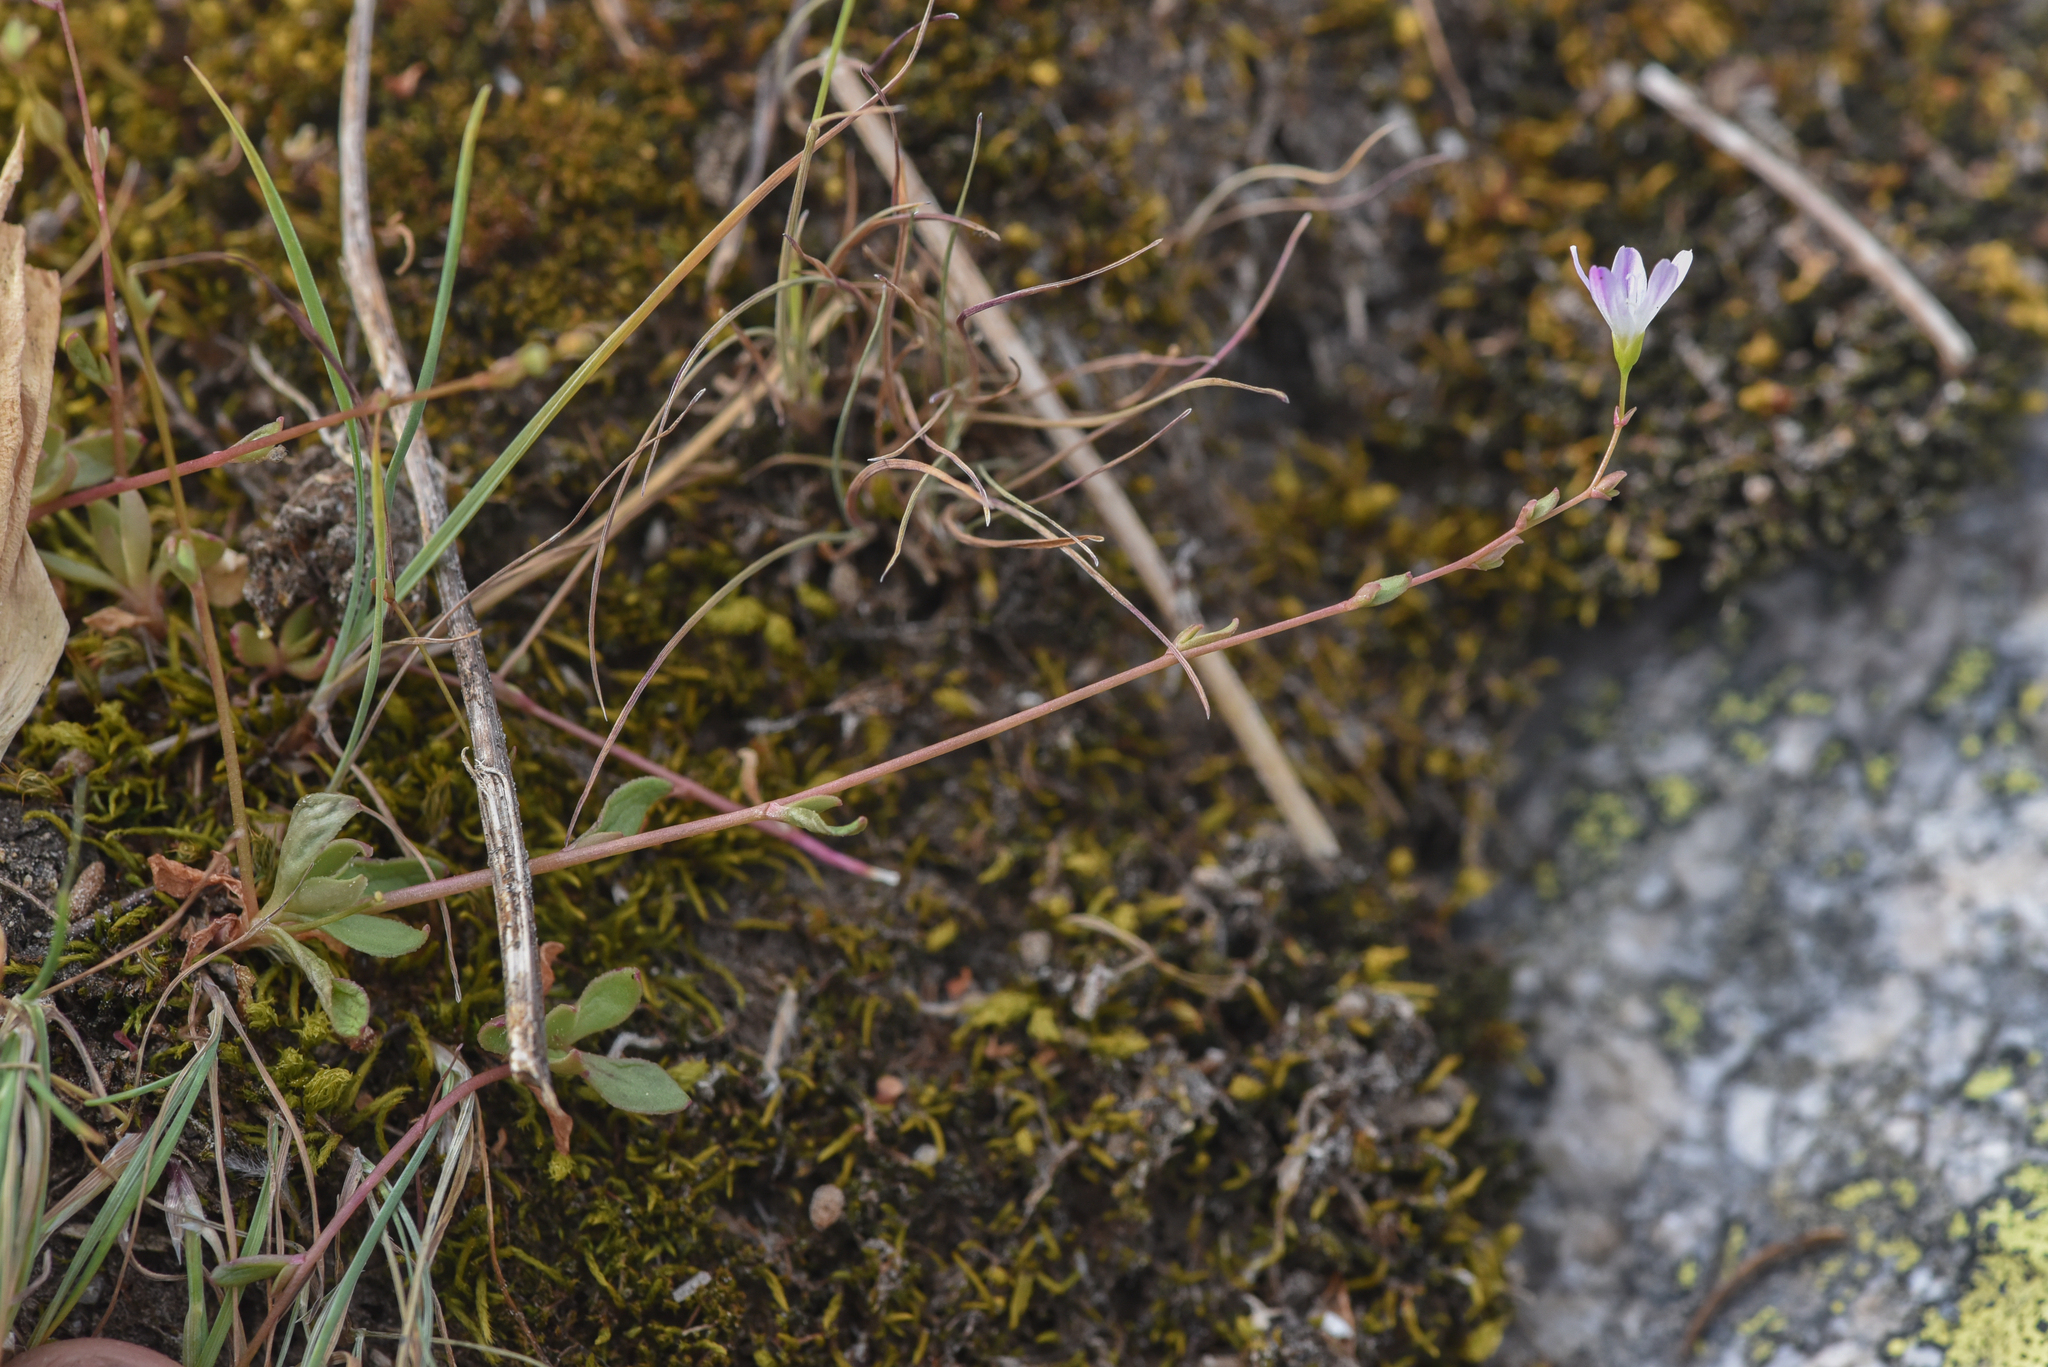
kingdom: Plantae
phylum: Tracheophyta
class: Magnoliopsida
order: Caryophyllales
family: Montiaceae
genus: Montia
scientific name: Montia parvifolia
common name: Small-leaved blinks
